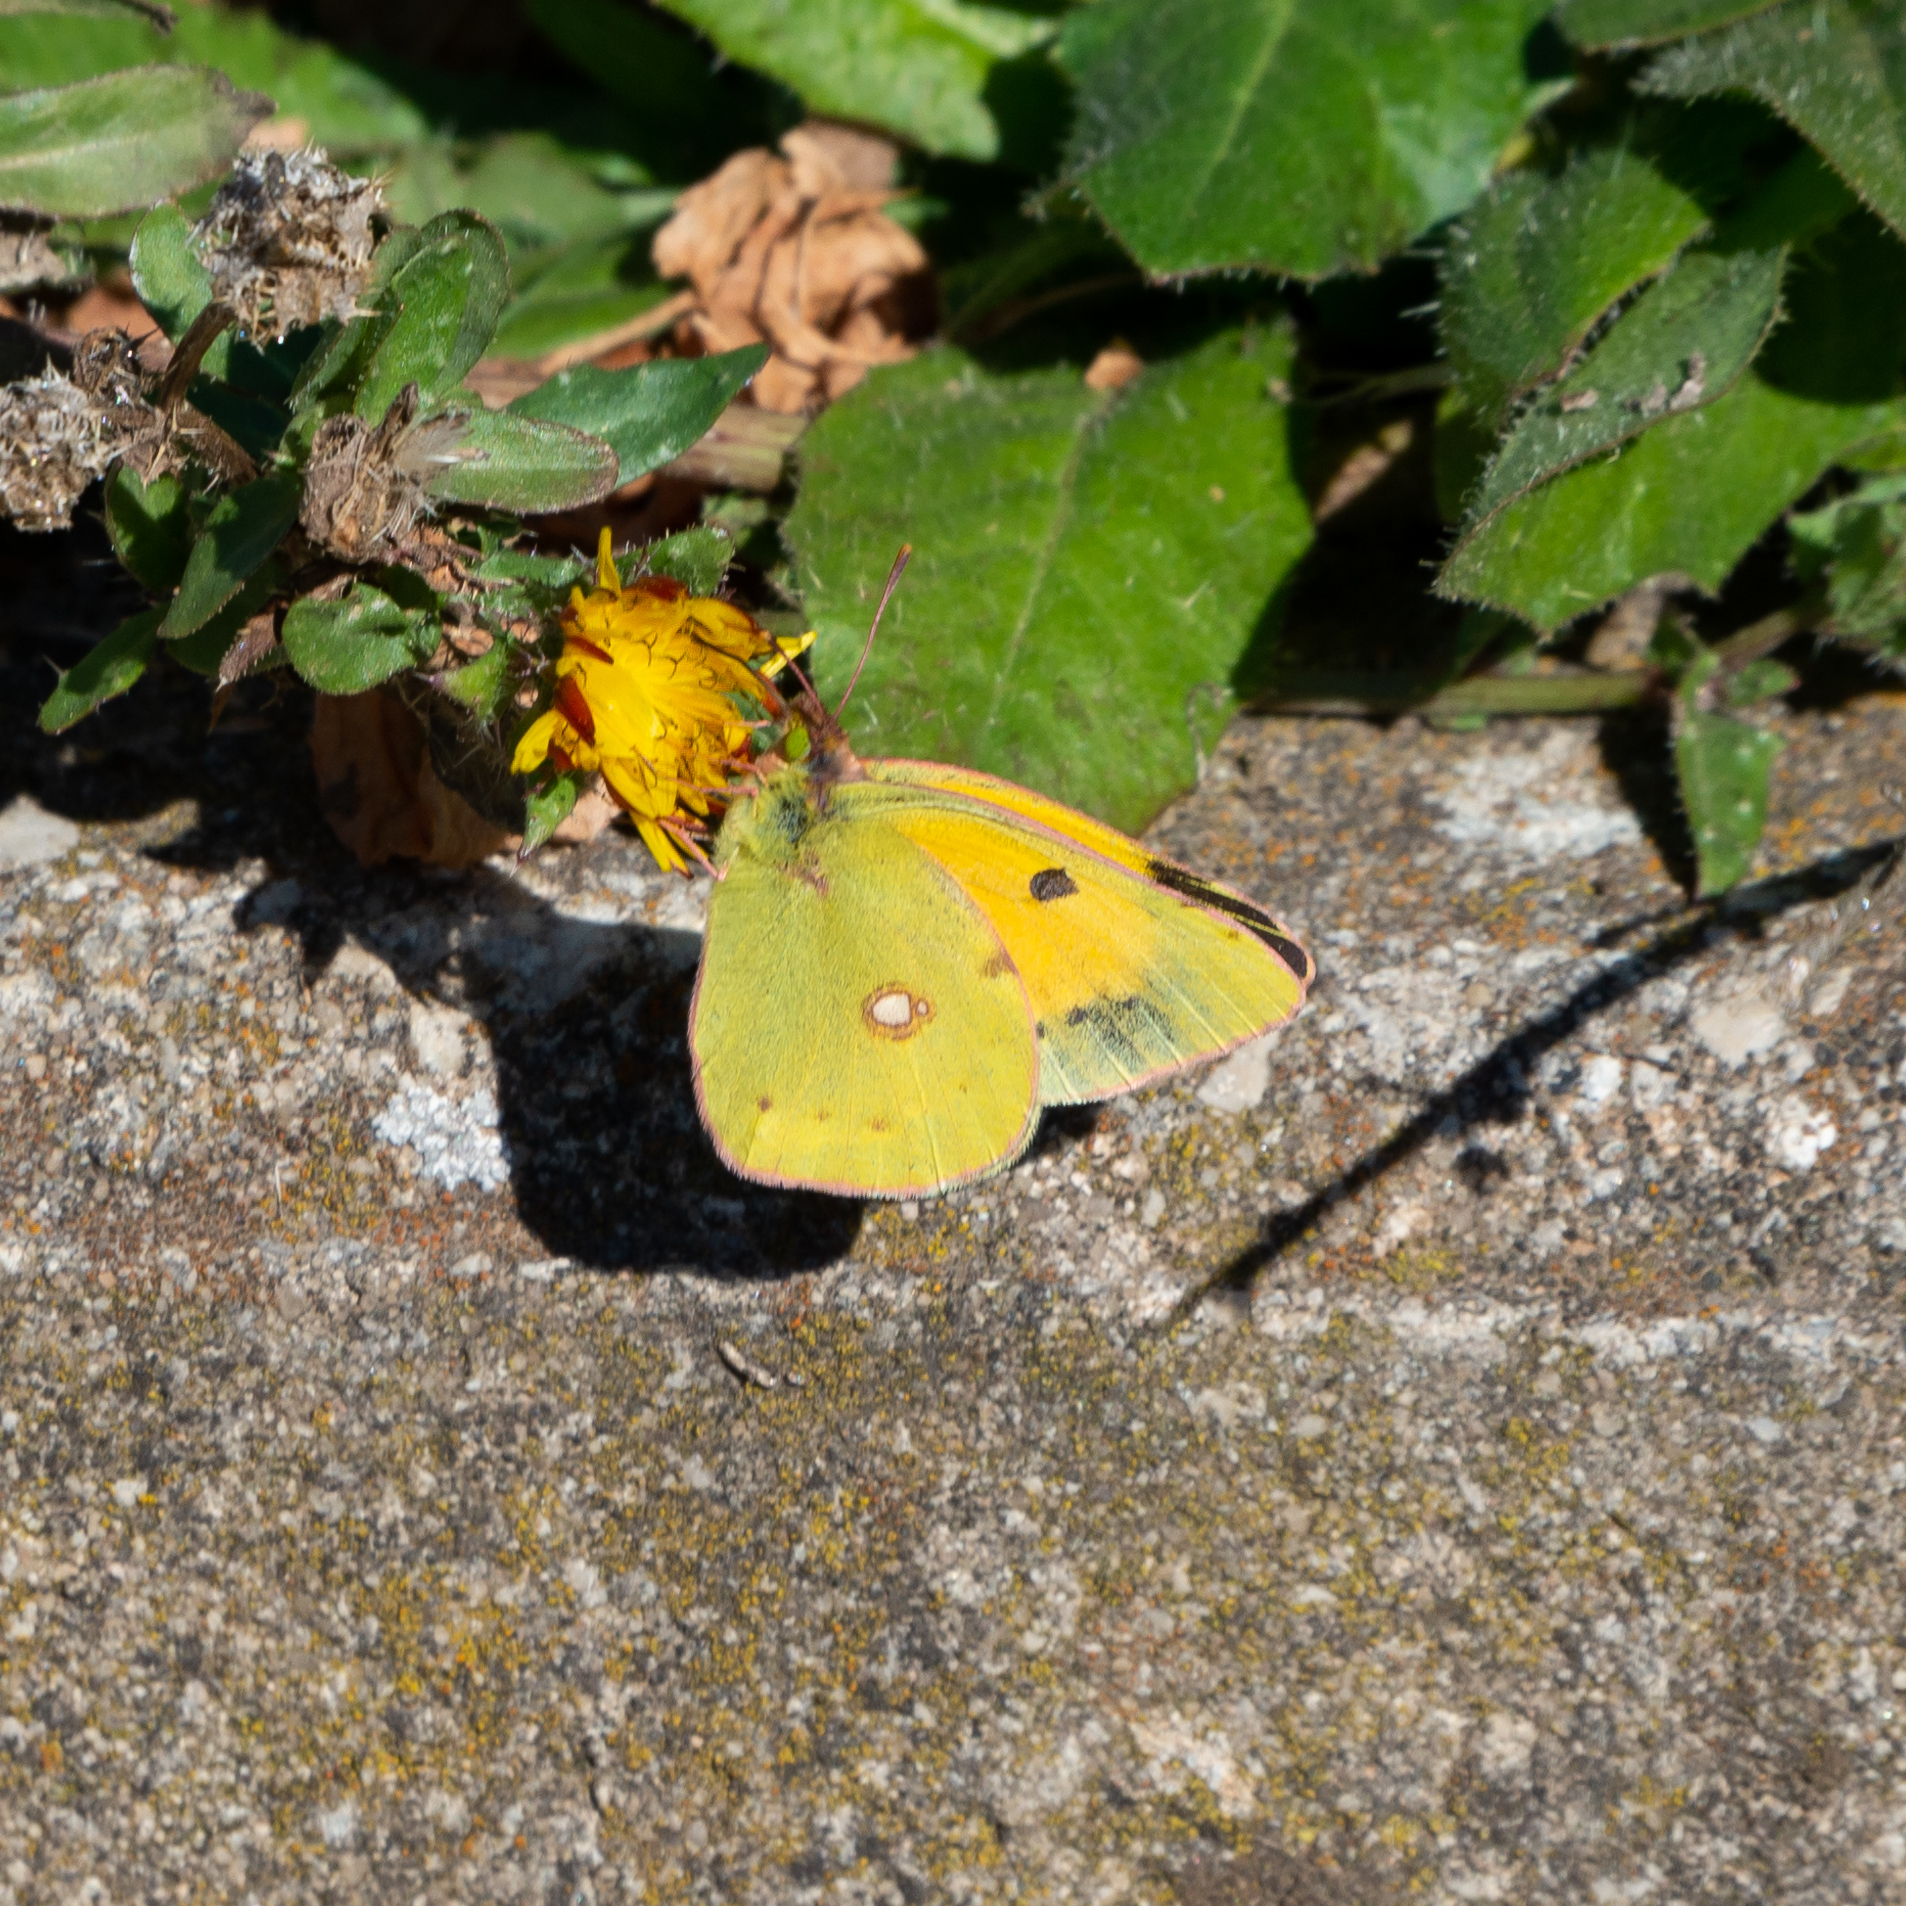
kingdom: Animalia
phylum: Arthropoda
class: Insecta
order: Lepidoptera
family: Pieridae
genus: Colias
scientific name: Colias croceus
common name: Clouded yellow
